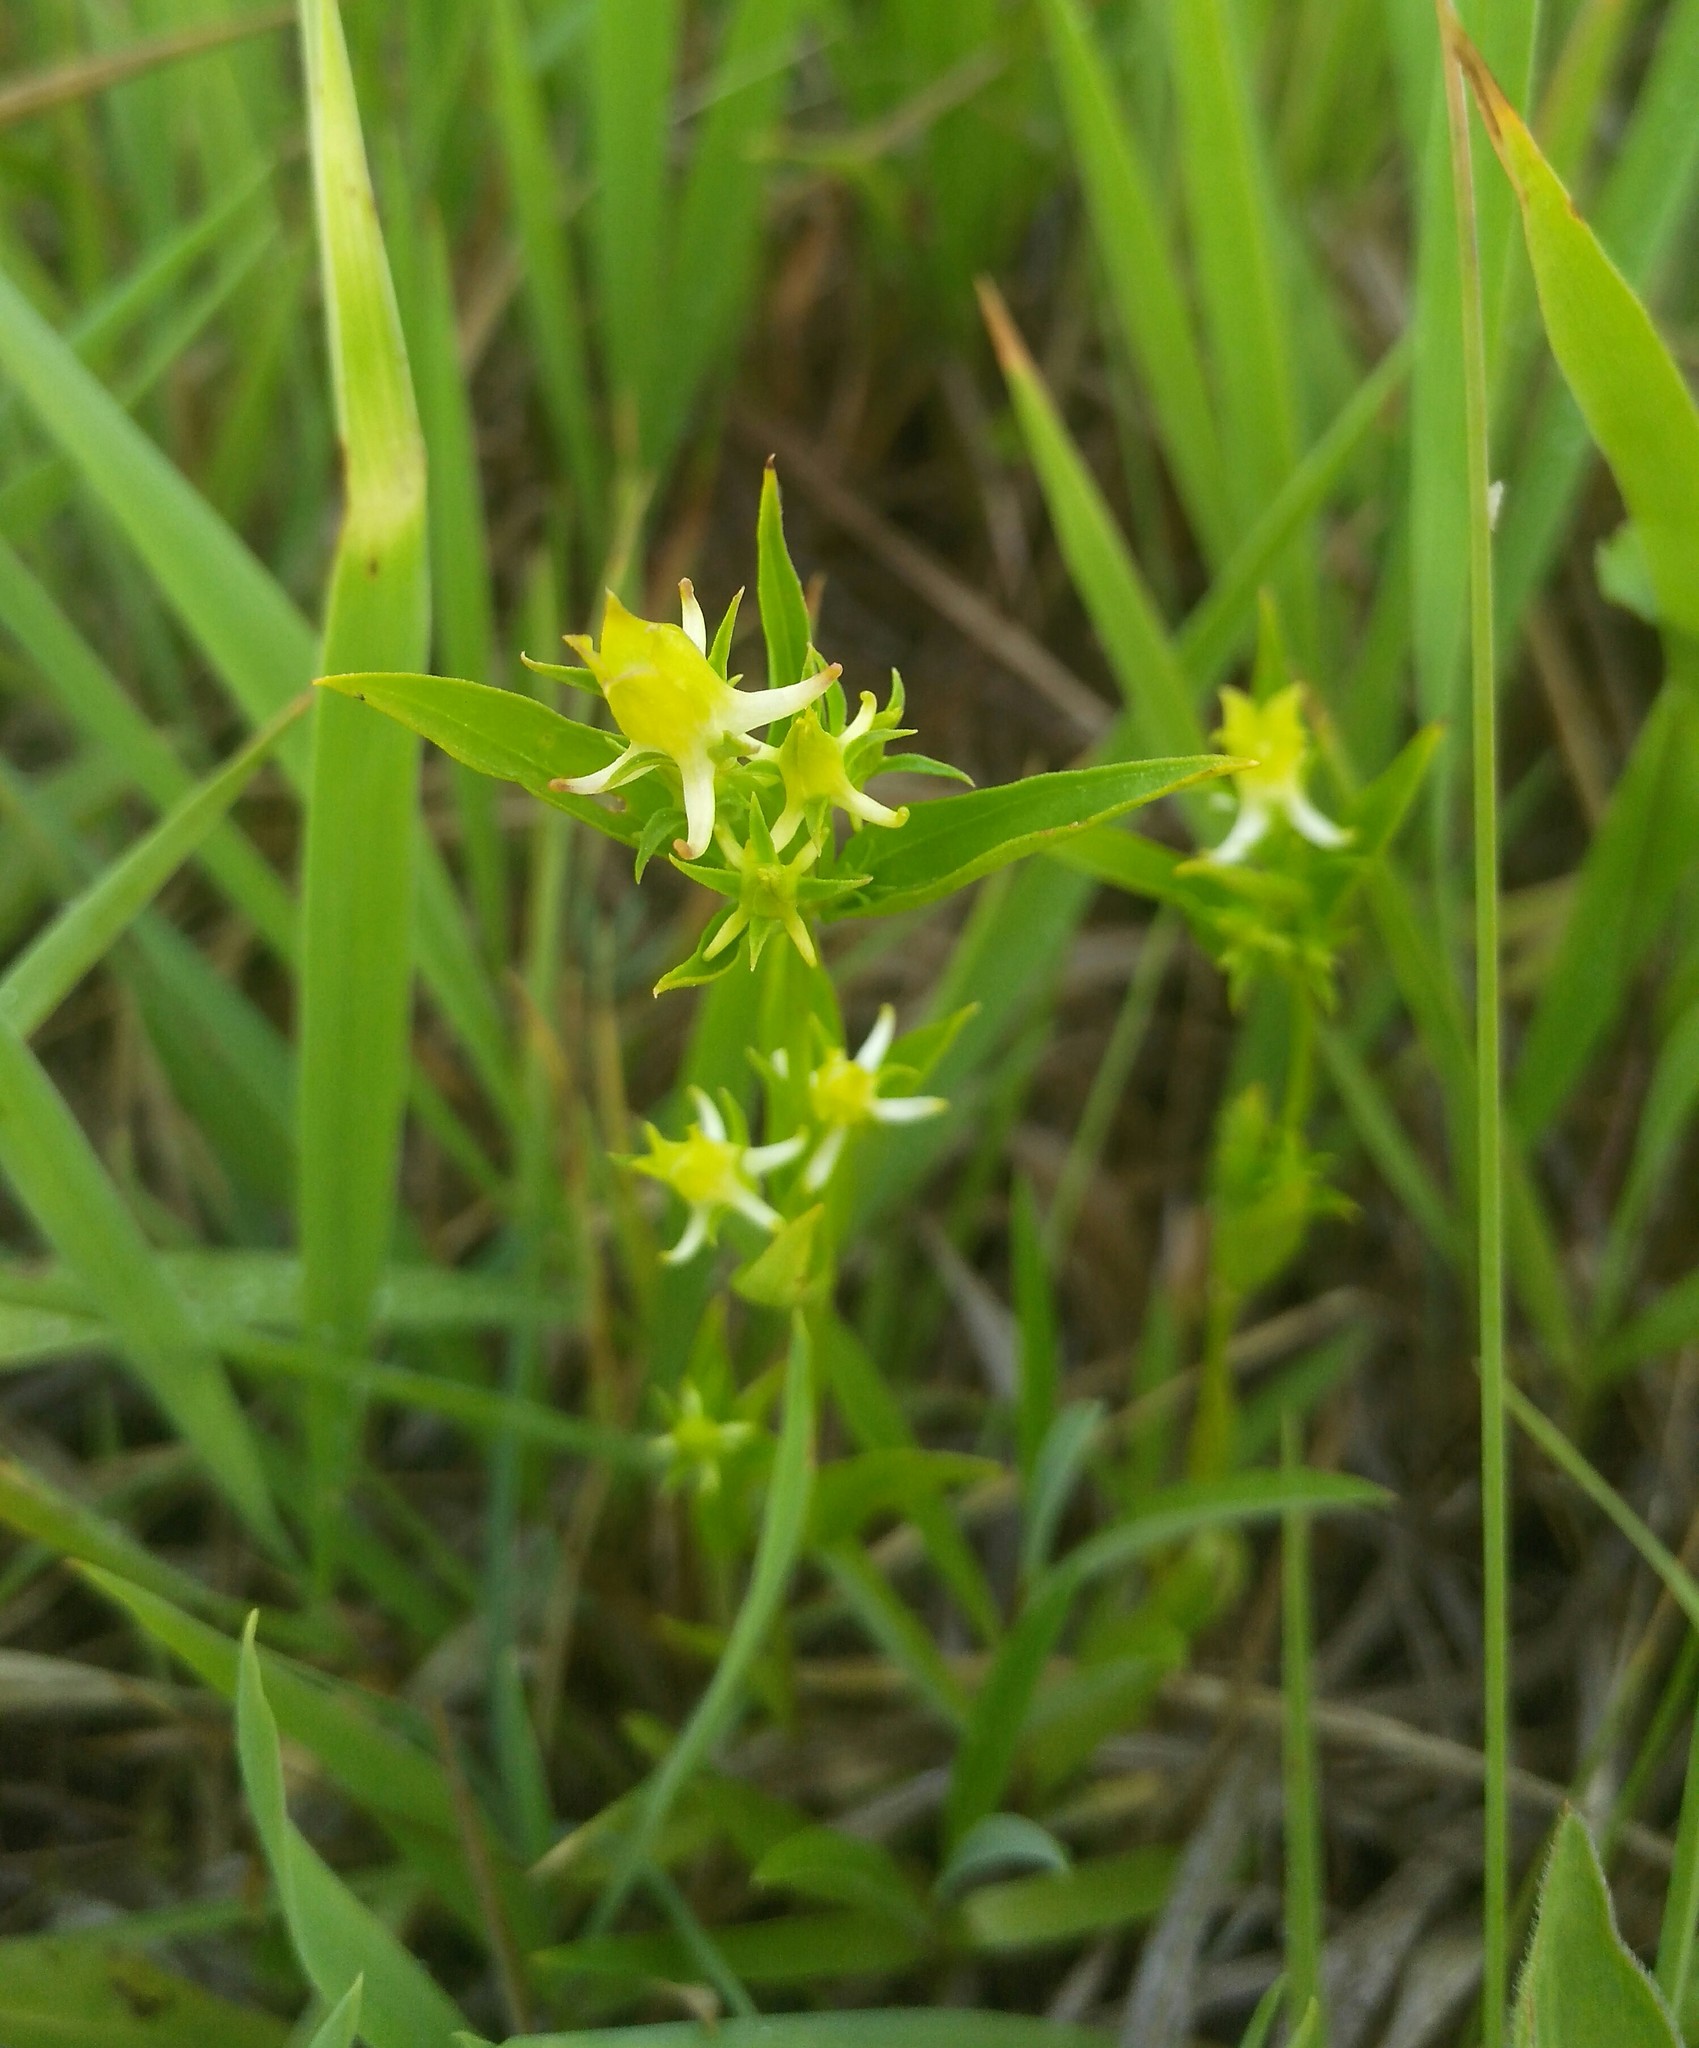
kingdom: Plantae
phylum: Tracheophyta
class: Magnoliopsida
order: Gentianales
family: Gentianaceae
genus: Halenia
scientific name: Halenia corniculata
